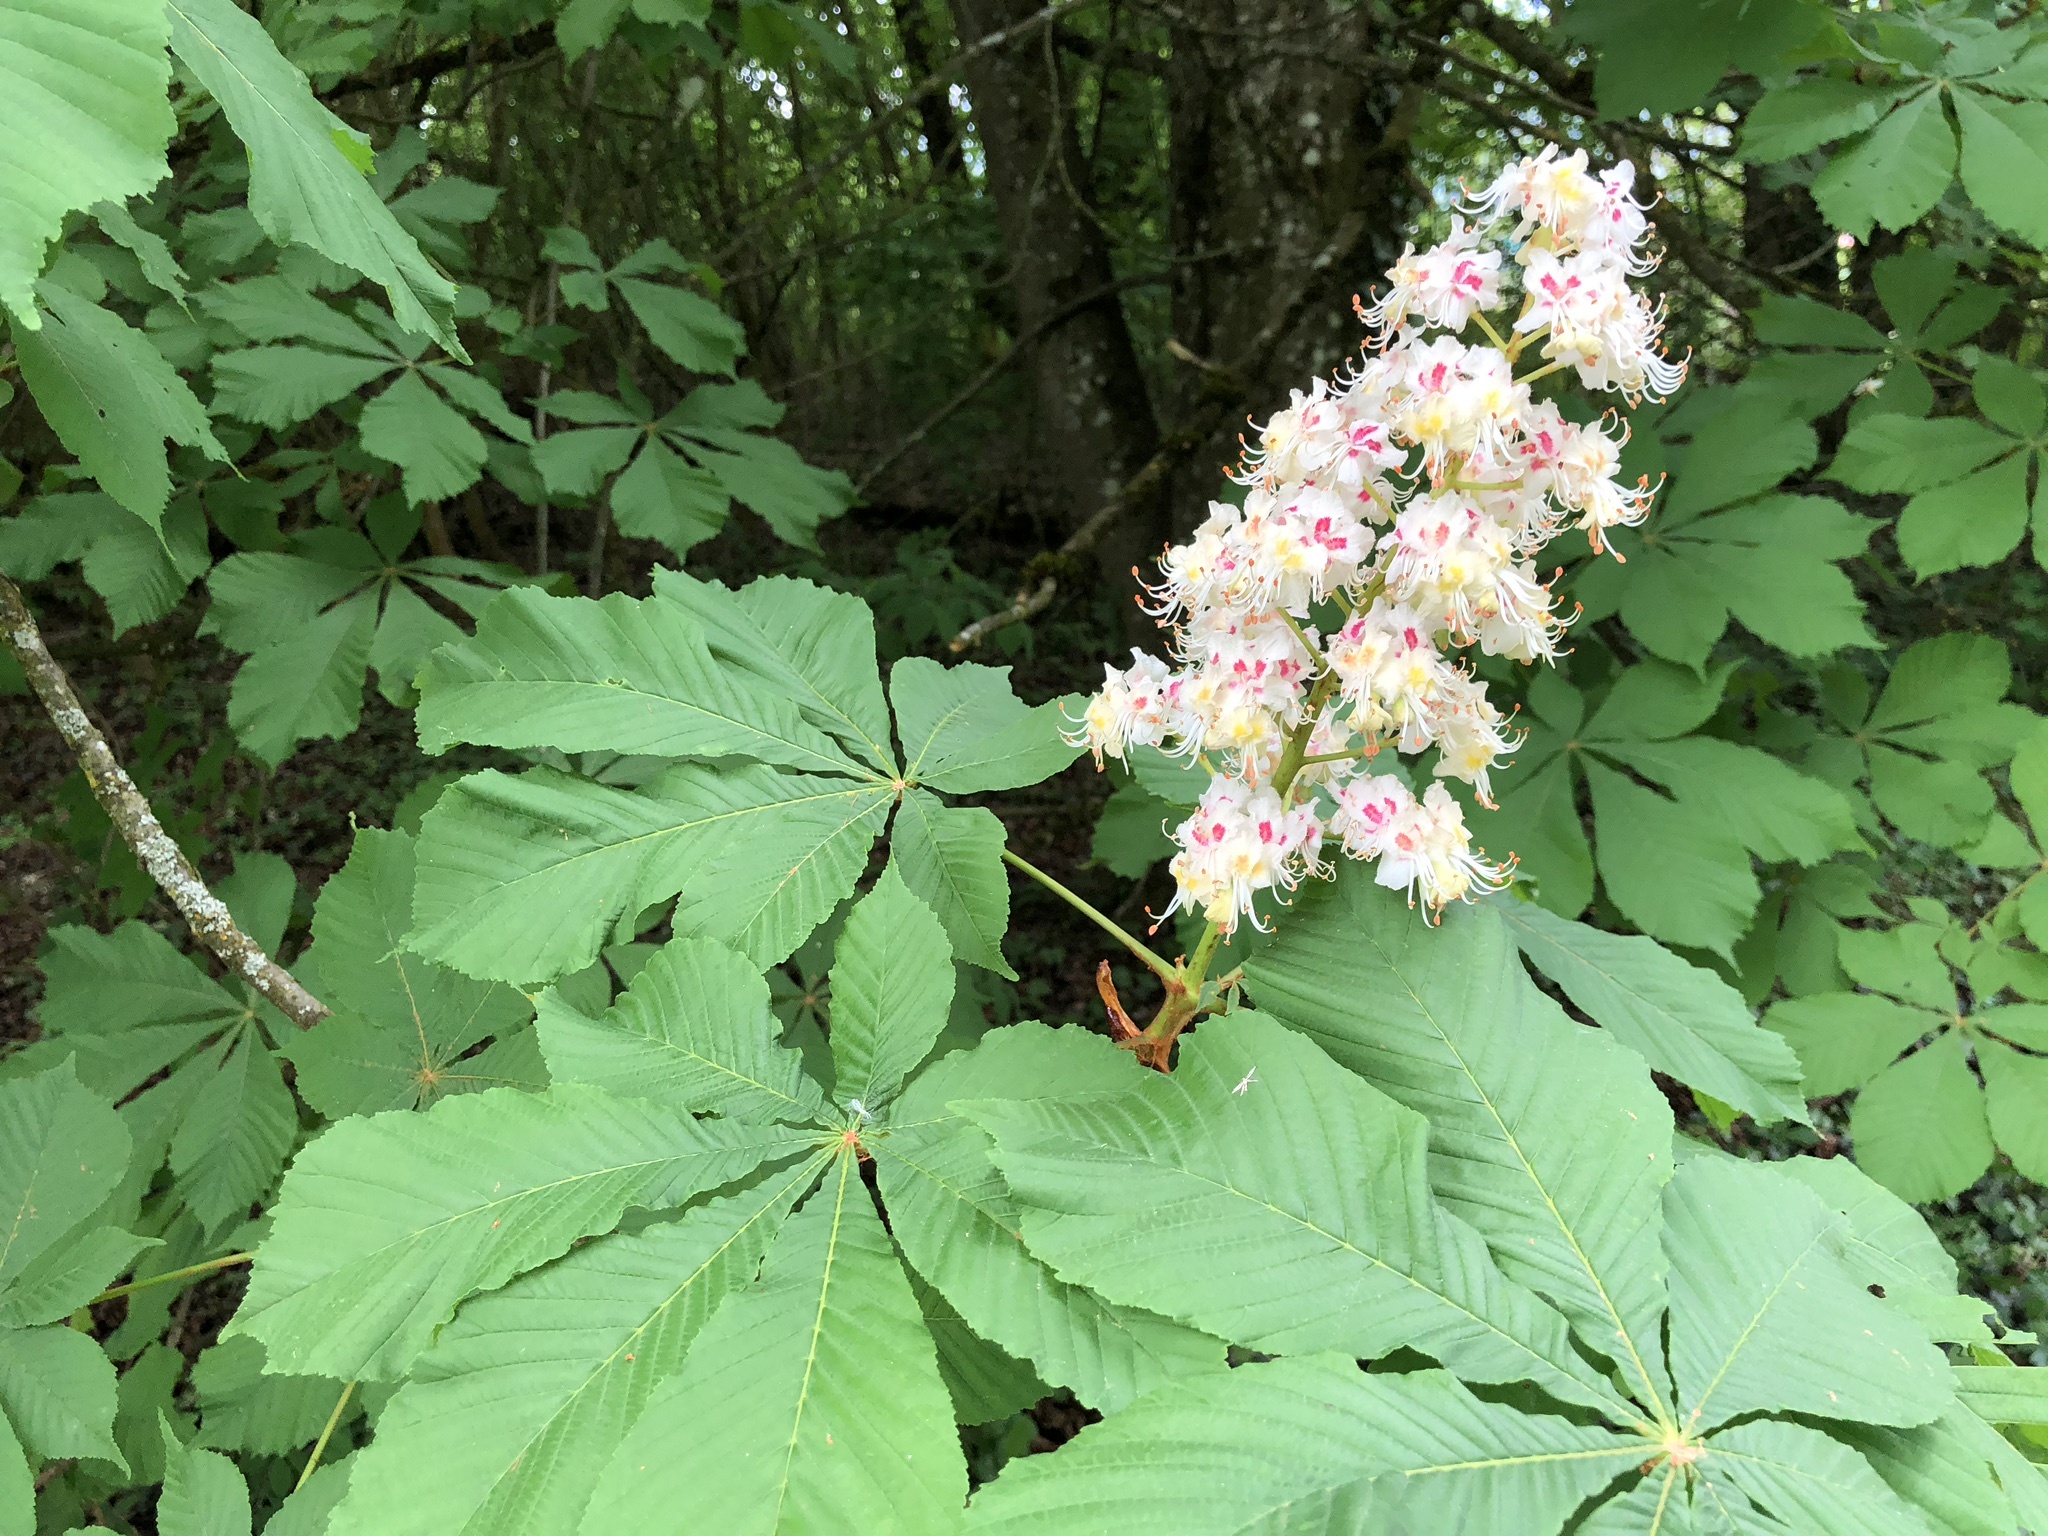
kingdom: Plantae
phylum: Tracheophyta
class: Magnoliopsida
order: Sapindales
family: Sapindaceae
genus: Aesculus
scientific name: Aesculus hippocastanum
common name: Horse-chestnut
